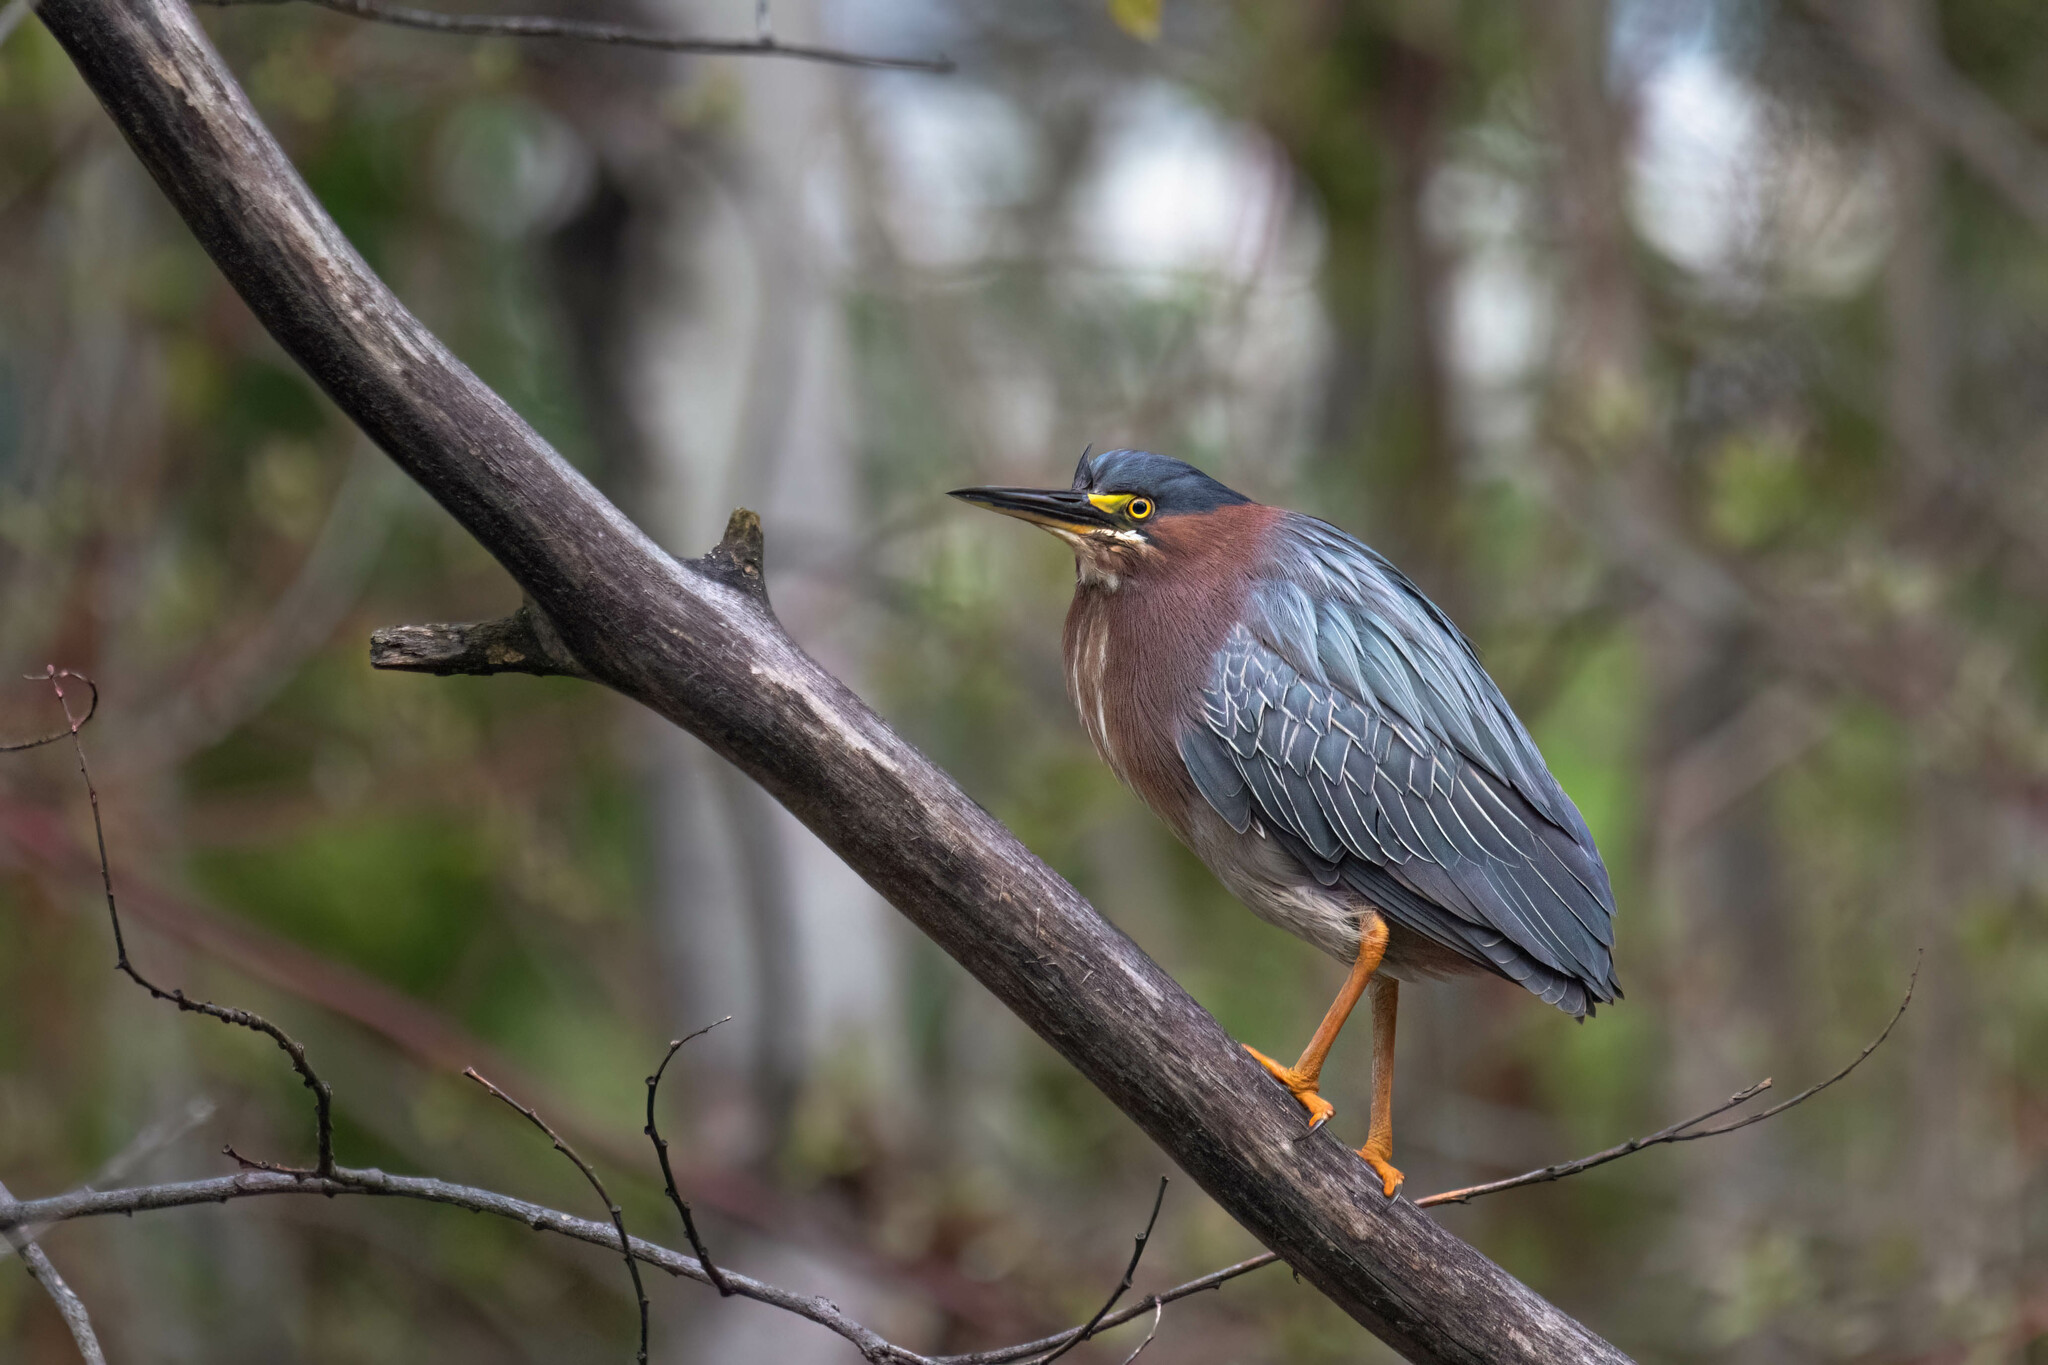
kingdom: Animalia
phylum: Chordata
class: Aves
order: Pelecaniformes
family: Ardeidae
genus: Butorides
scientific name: Butorides virescens
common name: Green heron
